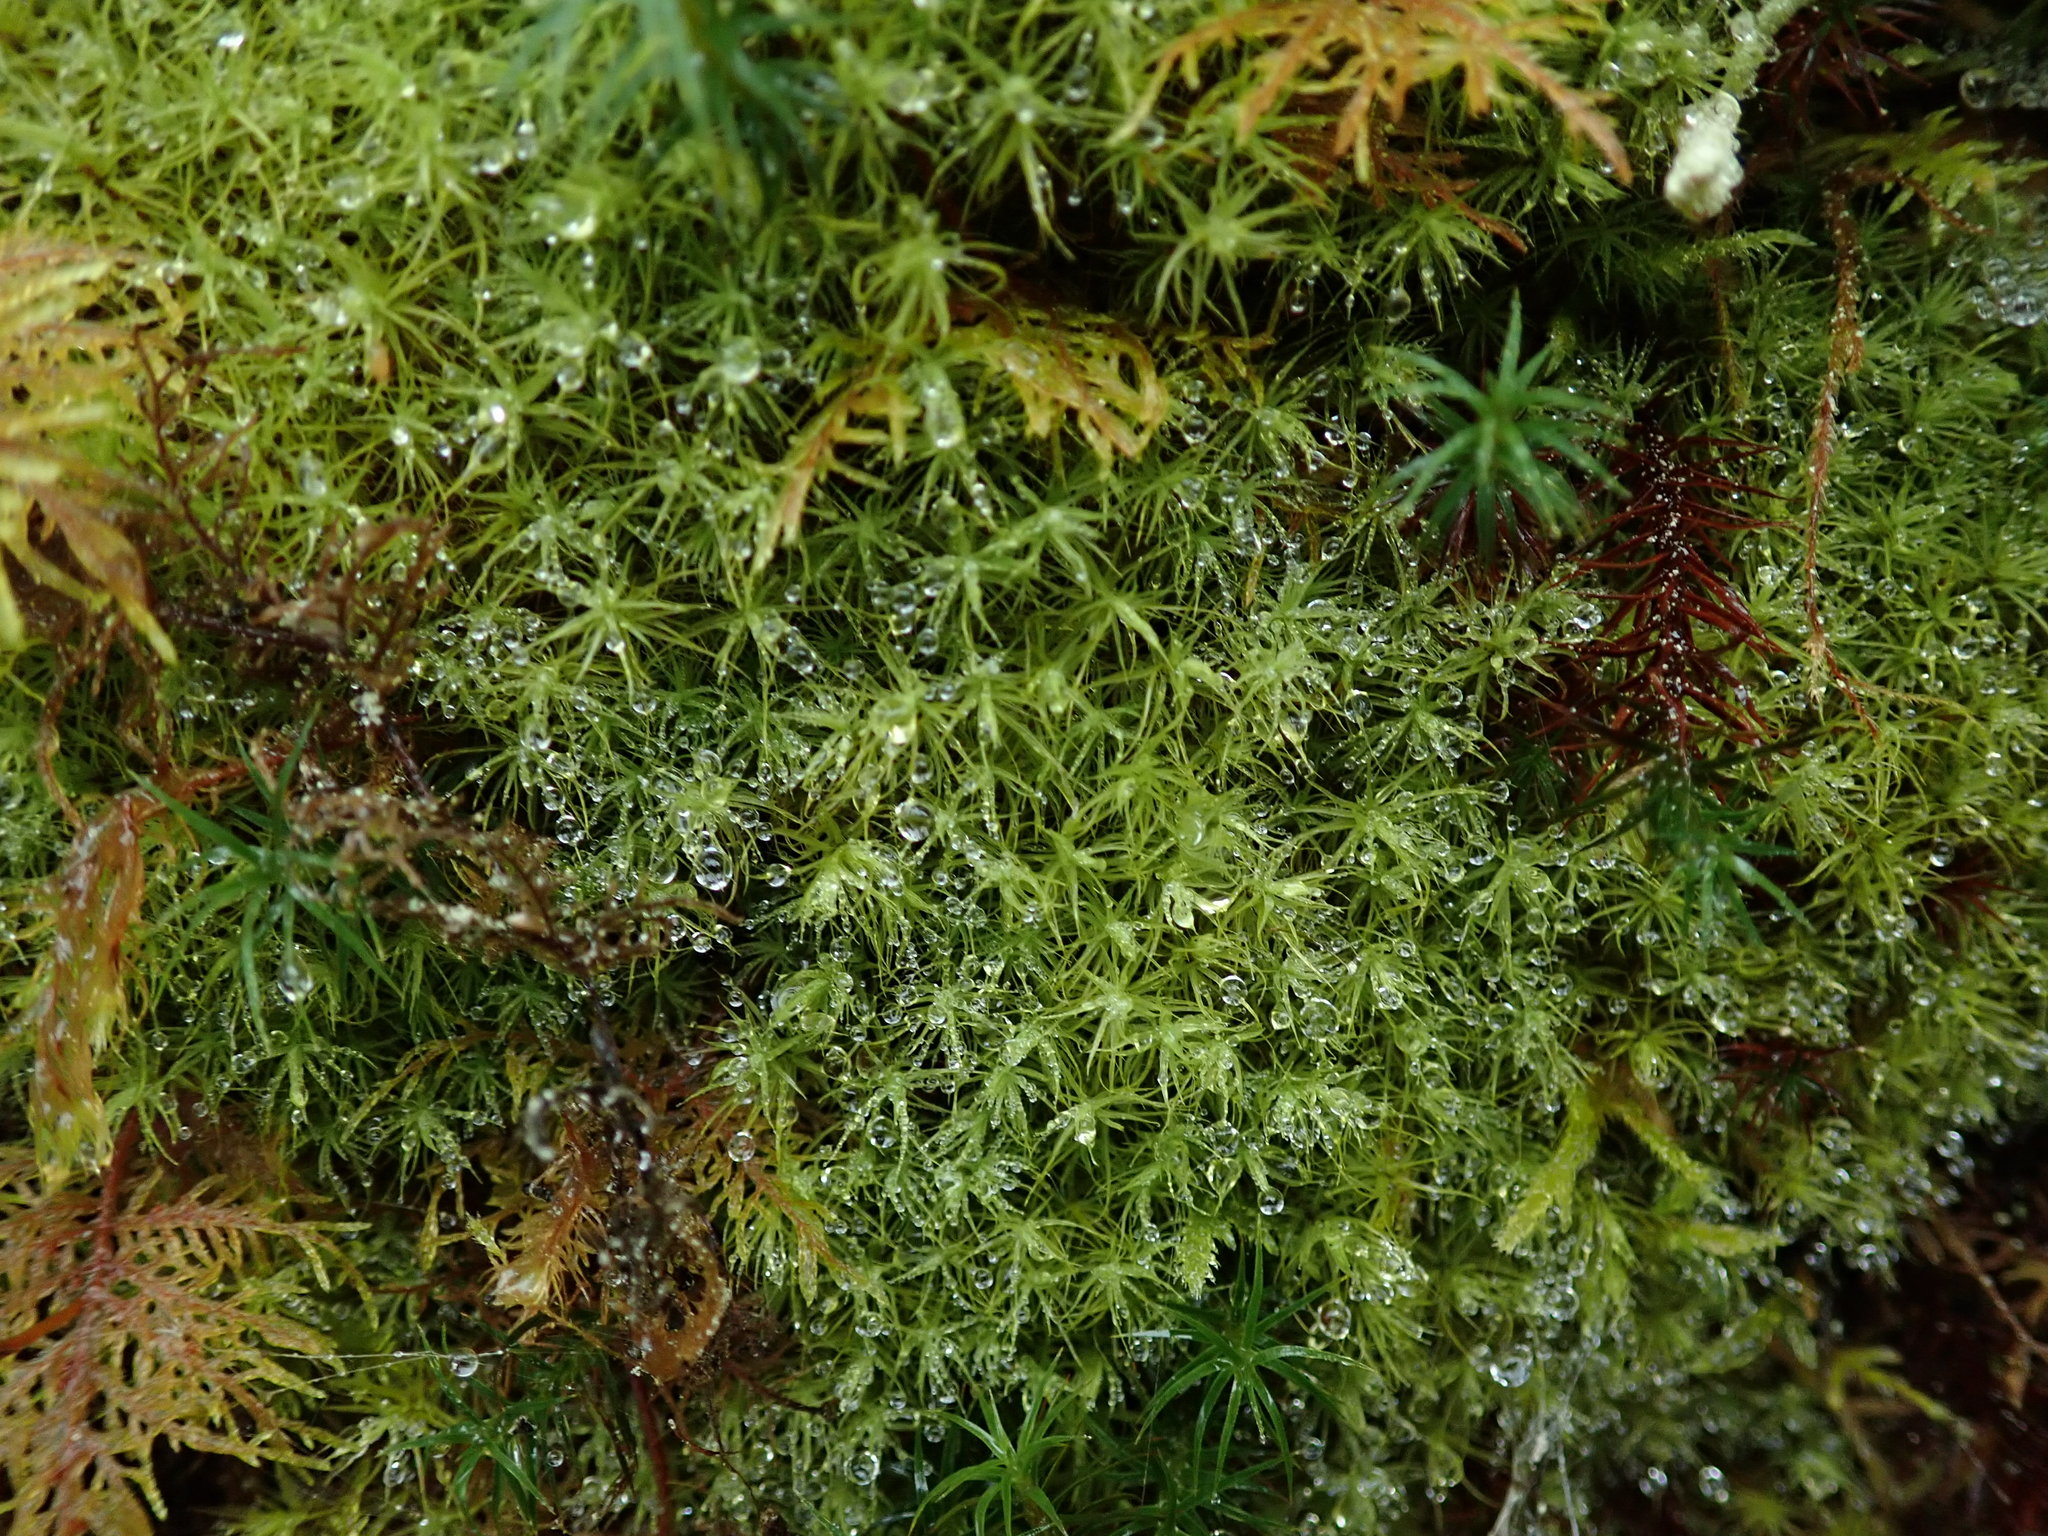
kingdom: Plantae
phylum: Bryophyta
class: Bryopsida
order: Bartramiales
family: Bartramiaceae
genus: Bartramia
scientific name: Bartramia ithyphylla
